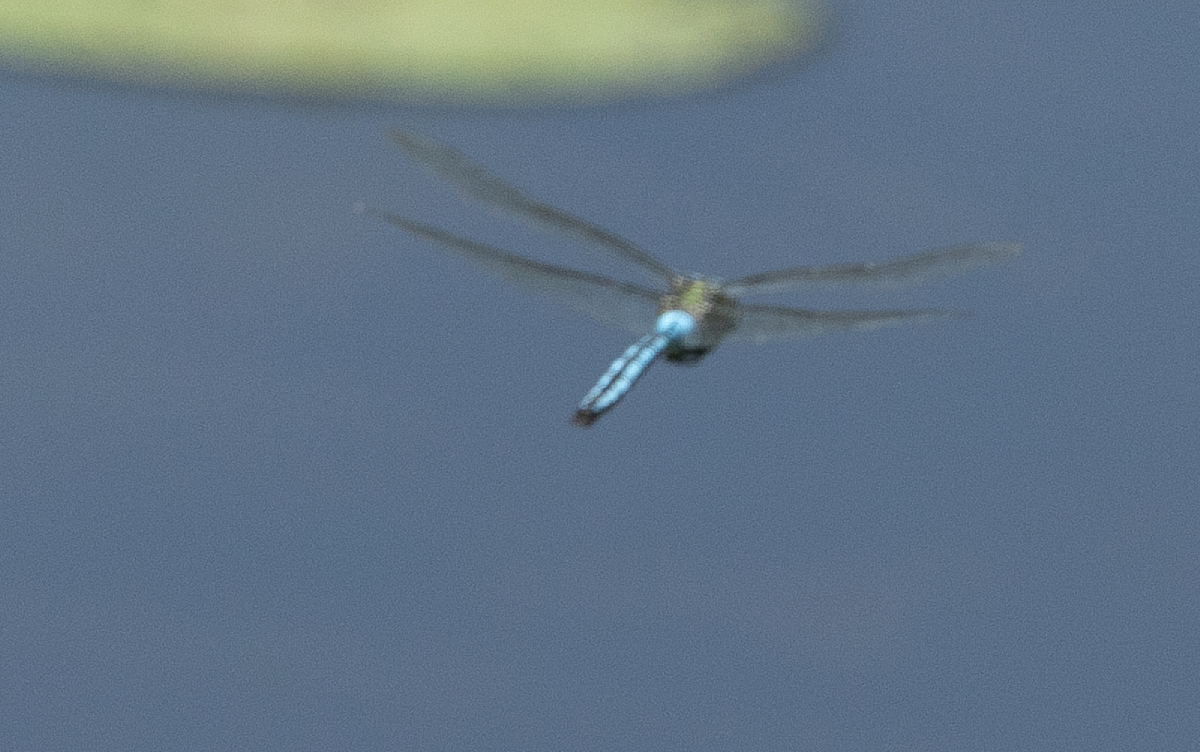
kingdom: Animalia
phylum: Arthropoda
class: Insecta
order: Odonata
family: Aeshnidae
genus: Anax
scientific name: Anax imperator
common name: Emperor dragonfly
